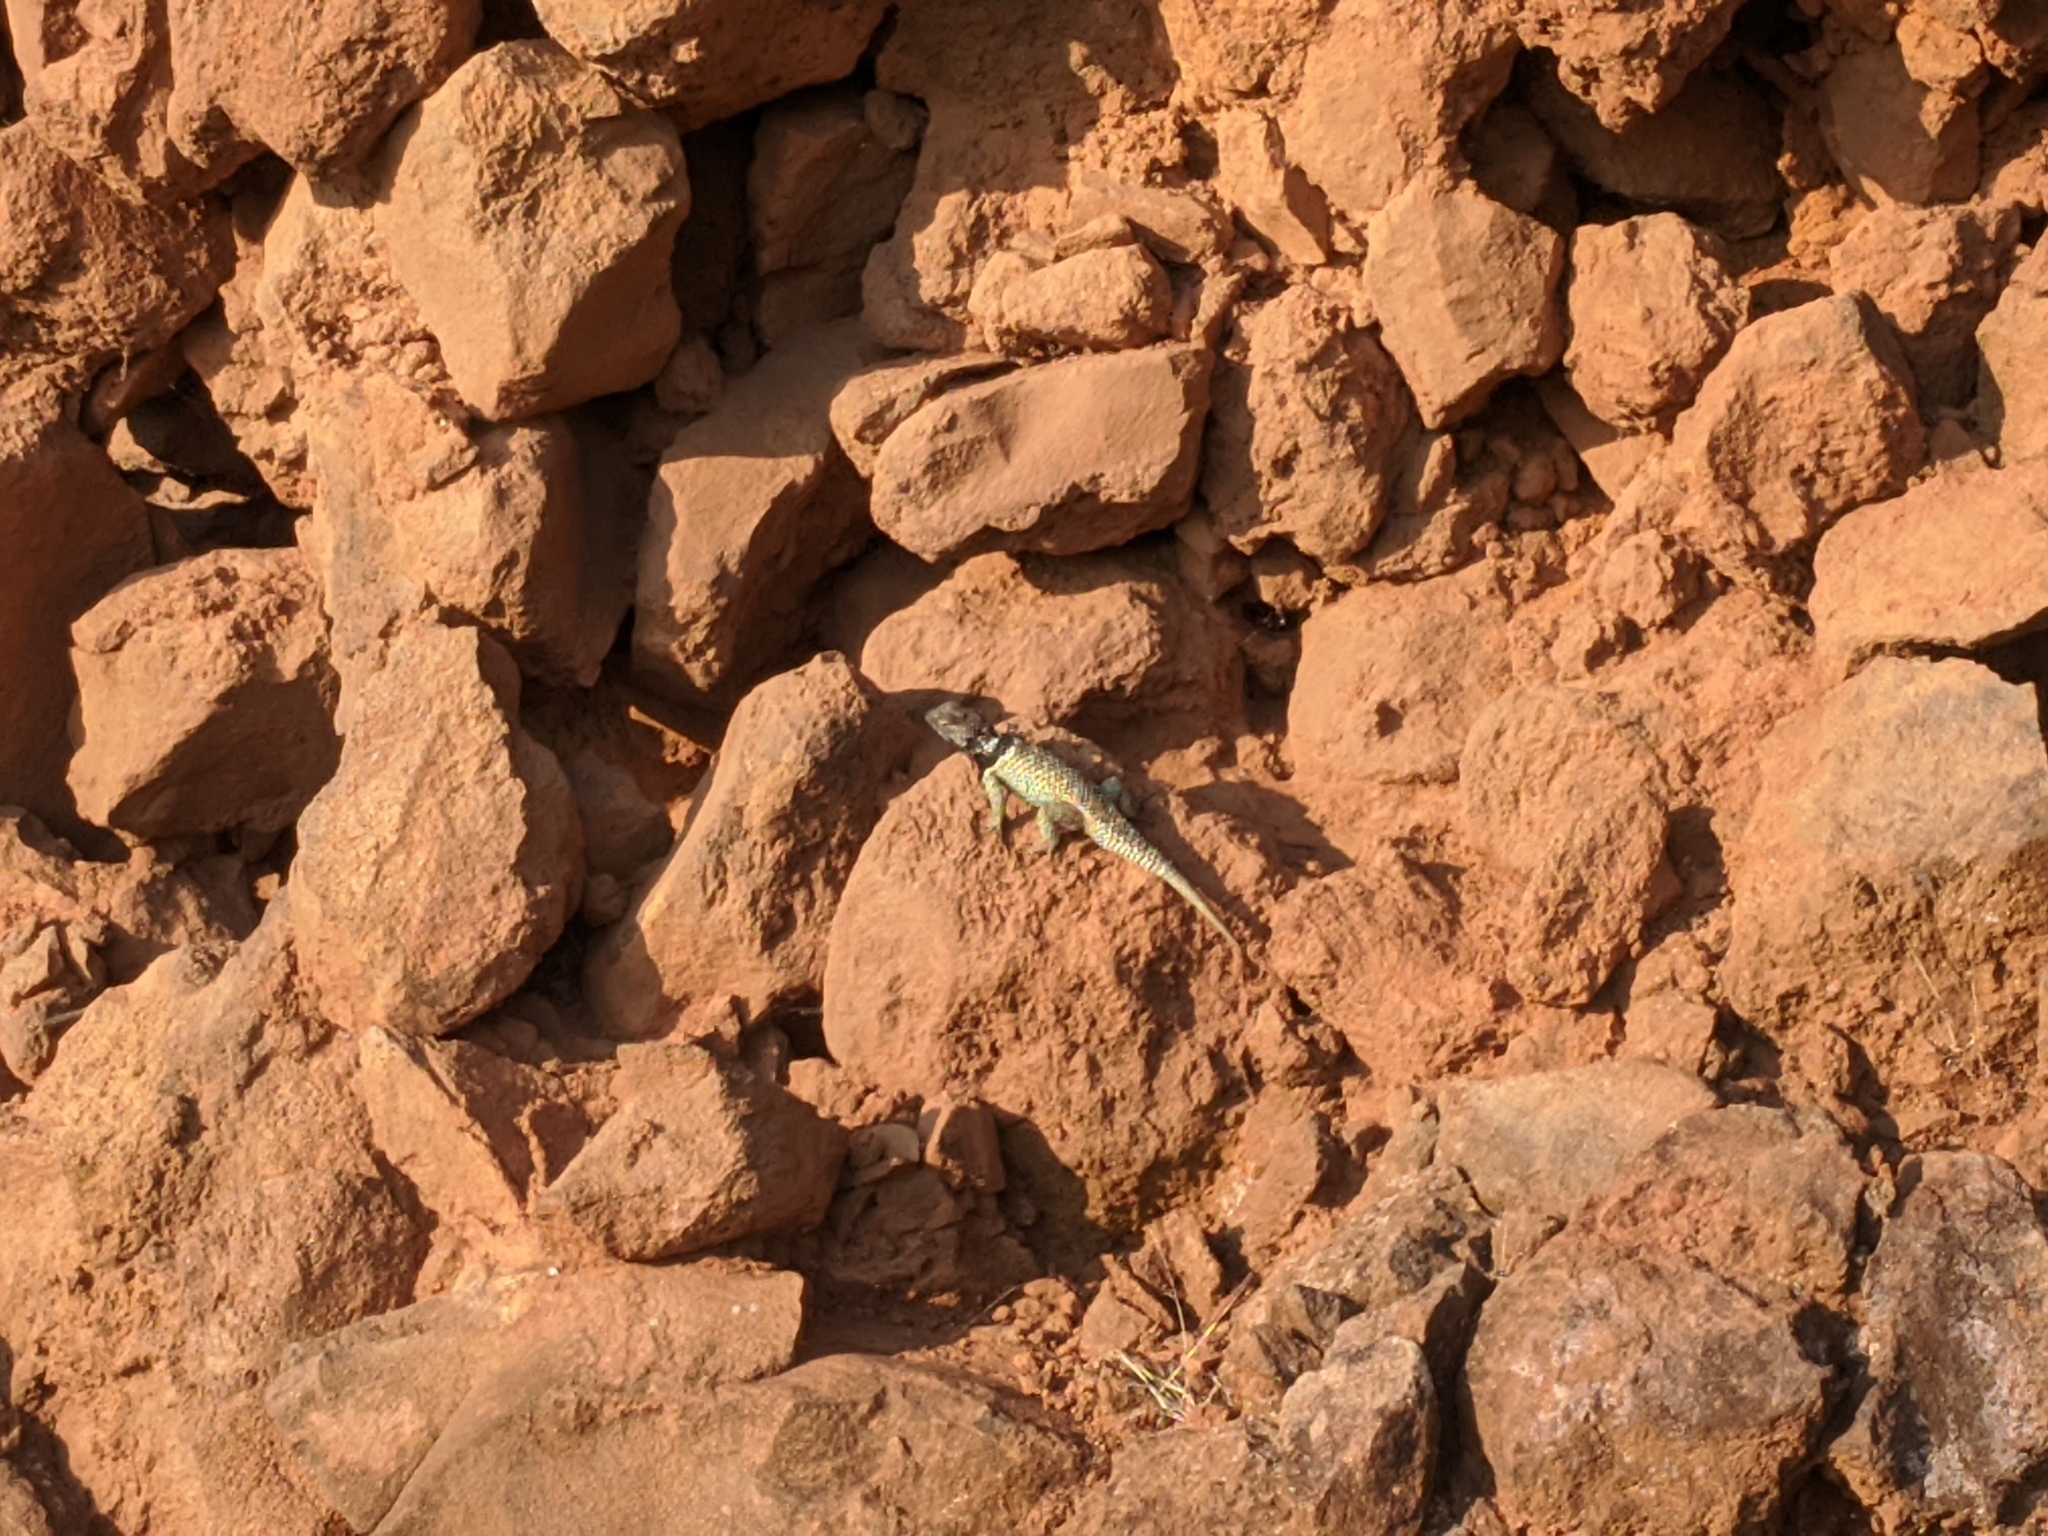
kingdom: Animalia
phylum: Chordata
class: Squamata
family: Phrynosomatidae
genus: Sceloporus
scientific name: Sceloporus torquatus
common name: Central plateau torquate lizard [melanogaster]
